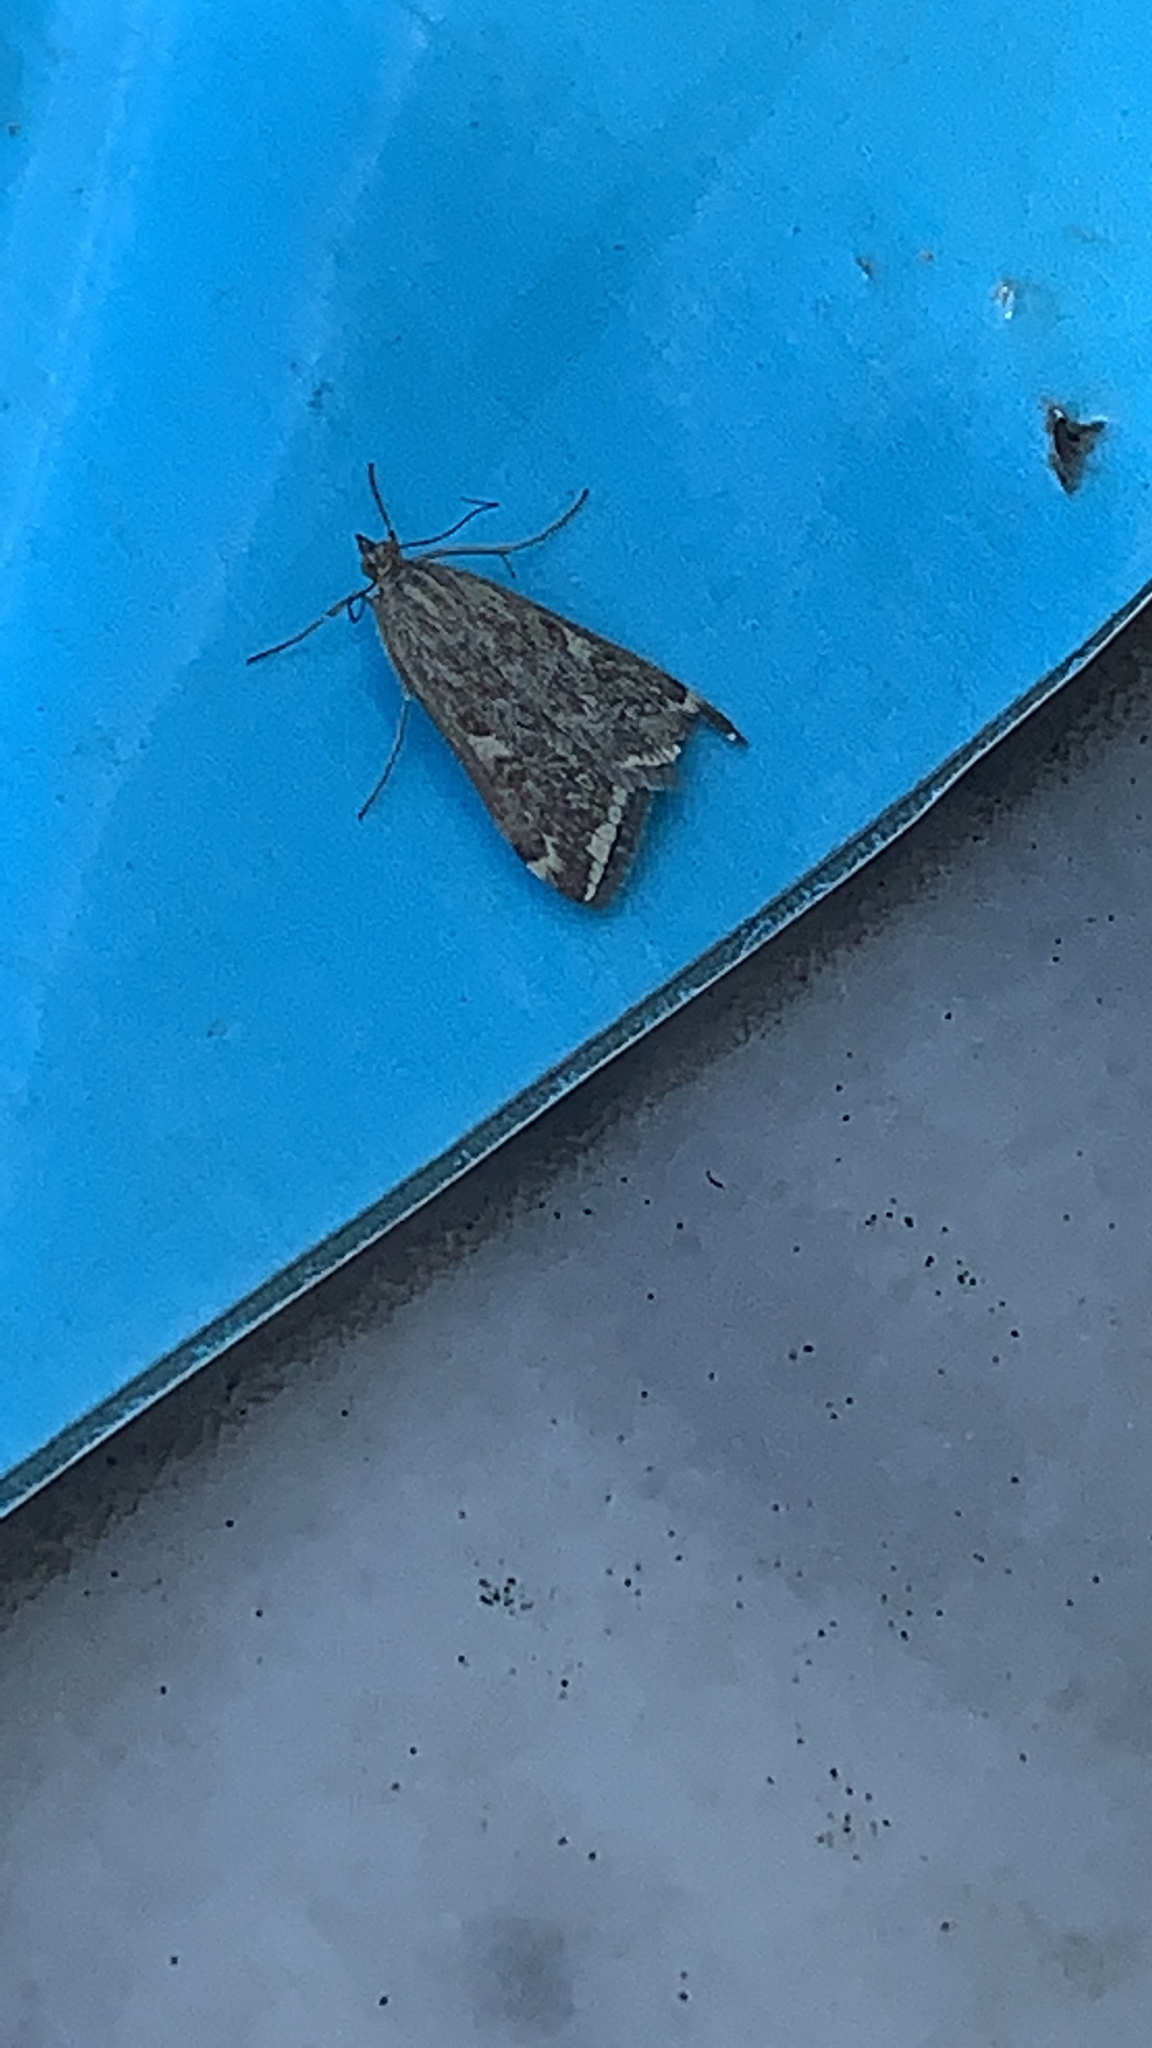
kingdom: Animalia
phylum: Arthropoda
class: Insecta
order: Lepidoptera
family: Crambidae
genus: Loxostege
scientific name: Loxostege sticticalis
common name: Crambid moth
